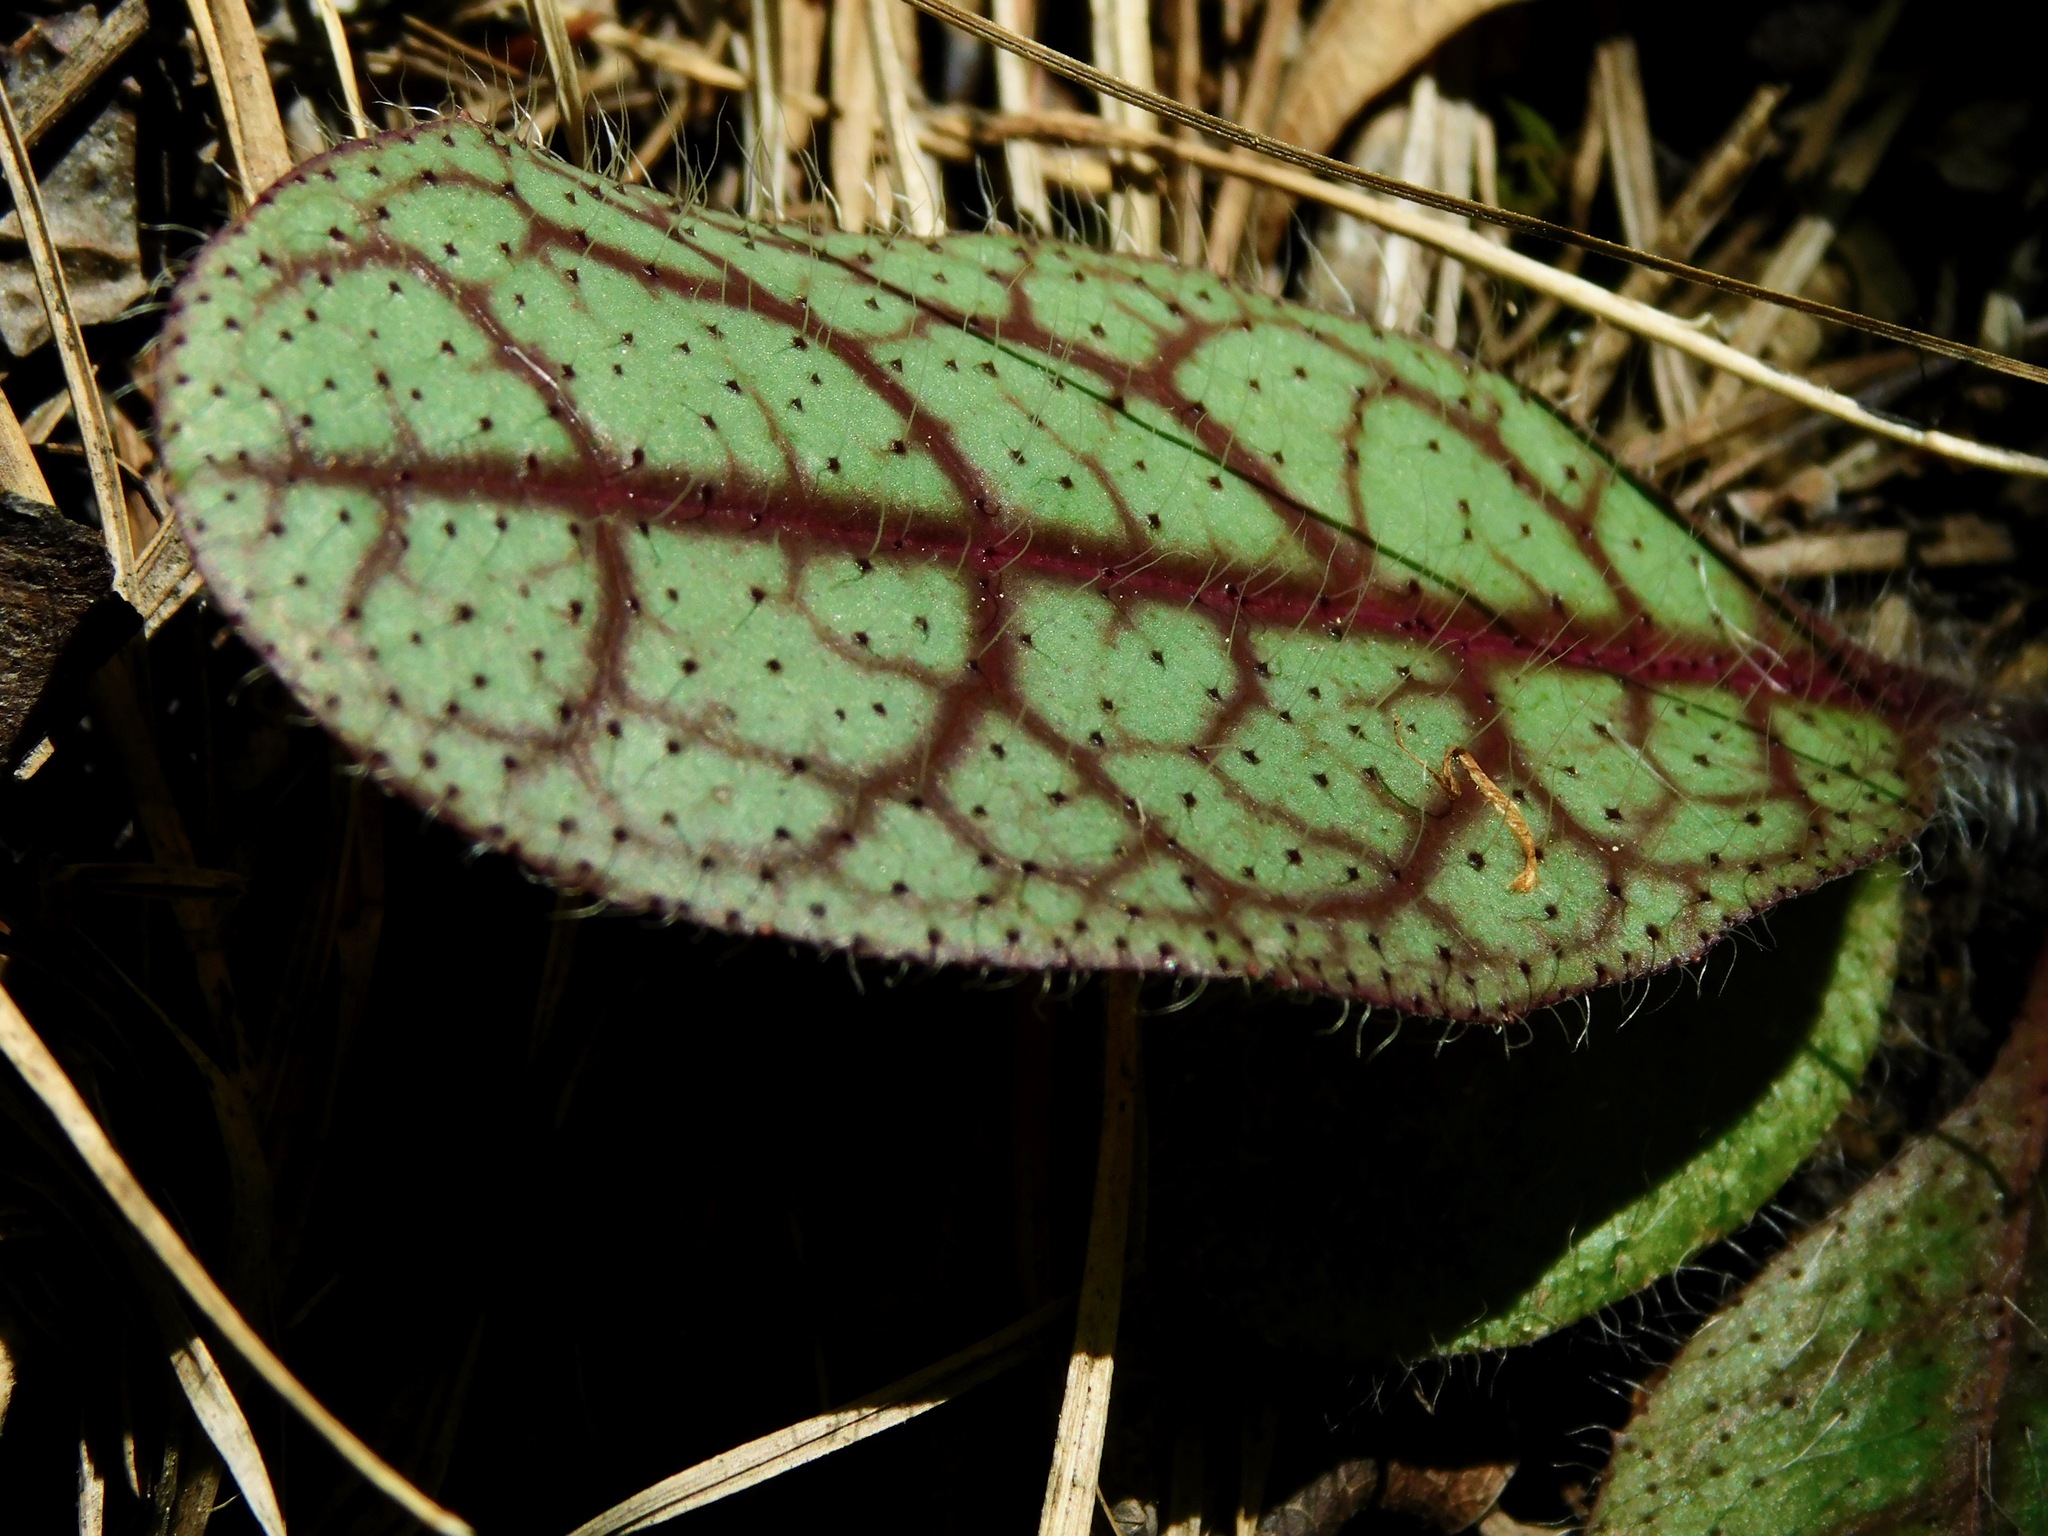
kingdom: Plantae
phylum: Tracheophyta
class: Magnoliopsida
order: Asterales
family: Asteraceae
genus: Hieracium
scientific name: Hieracium venosum
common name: Rattlesnake hawkweed
